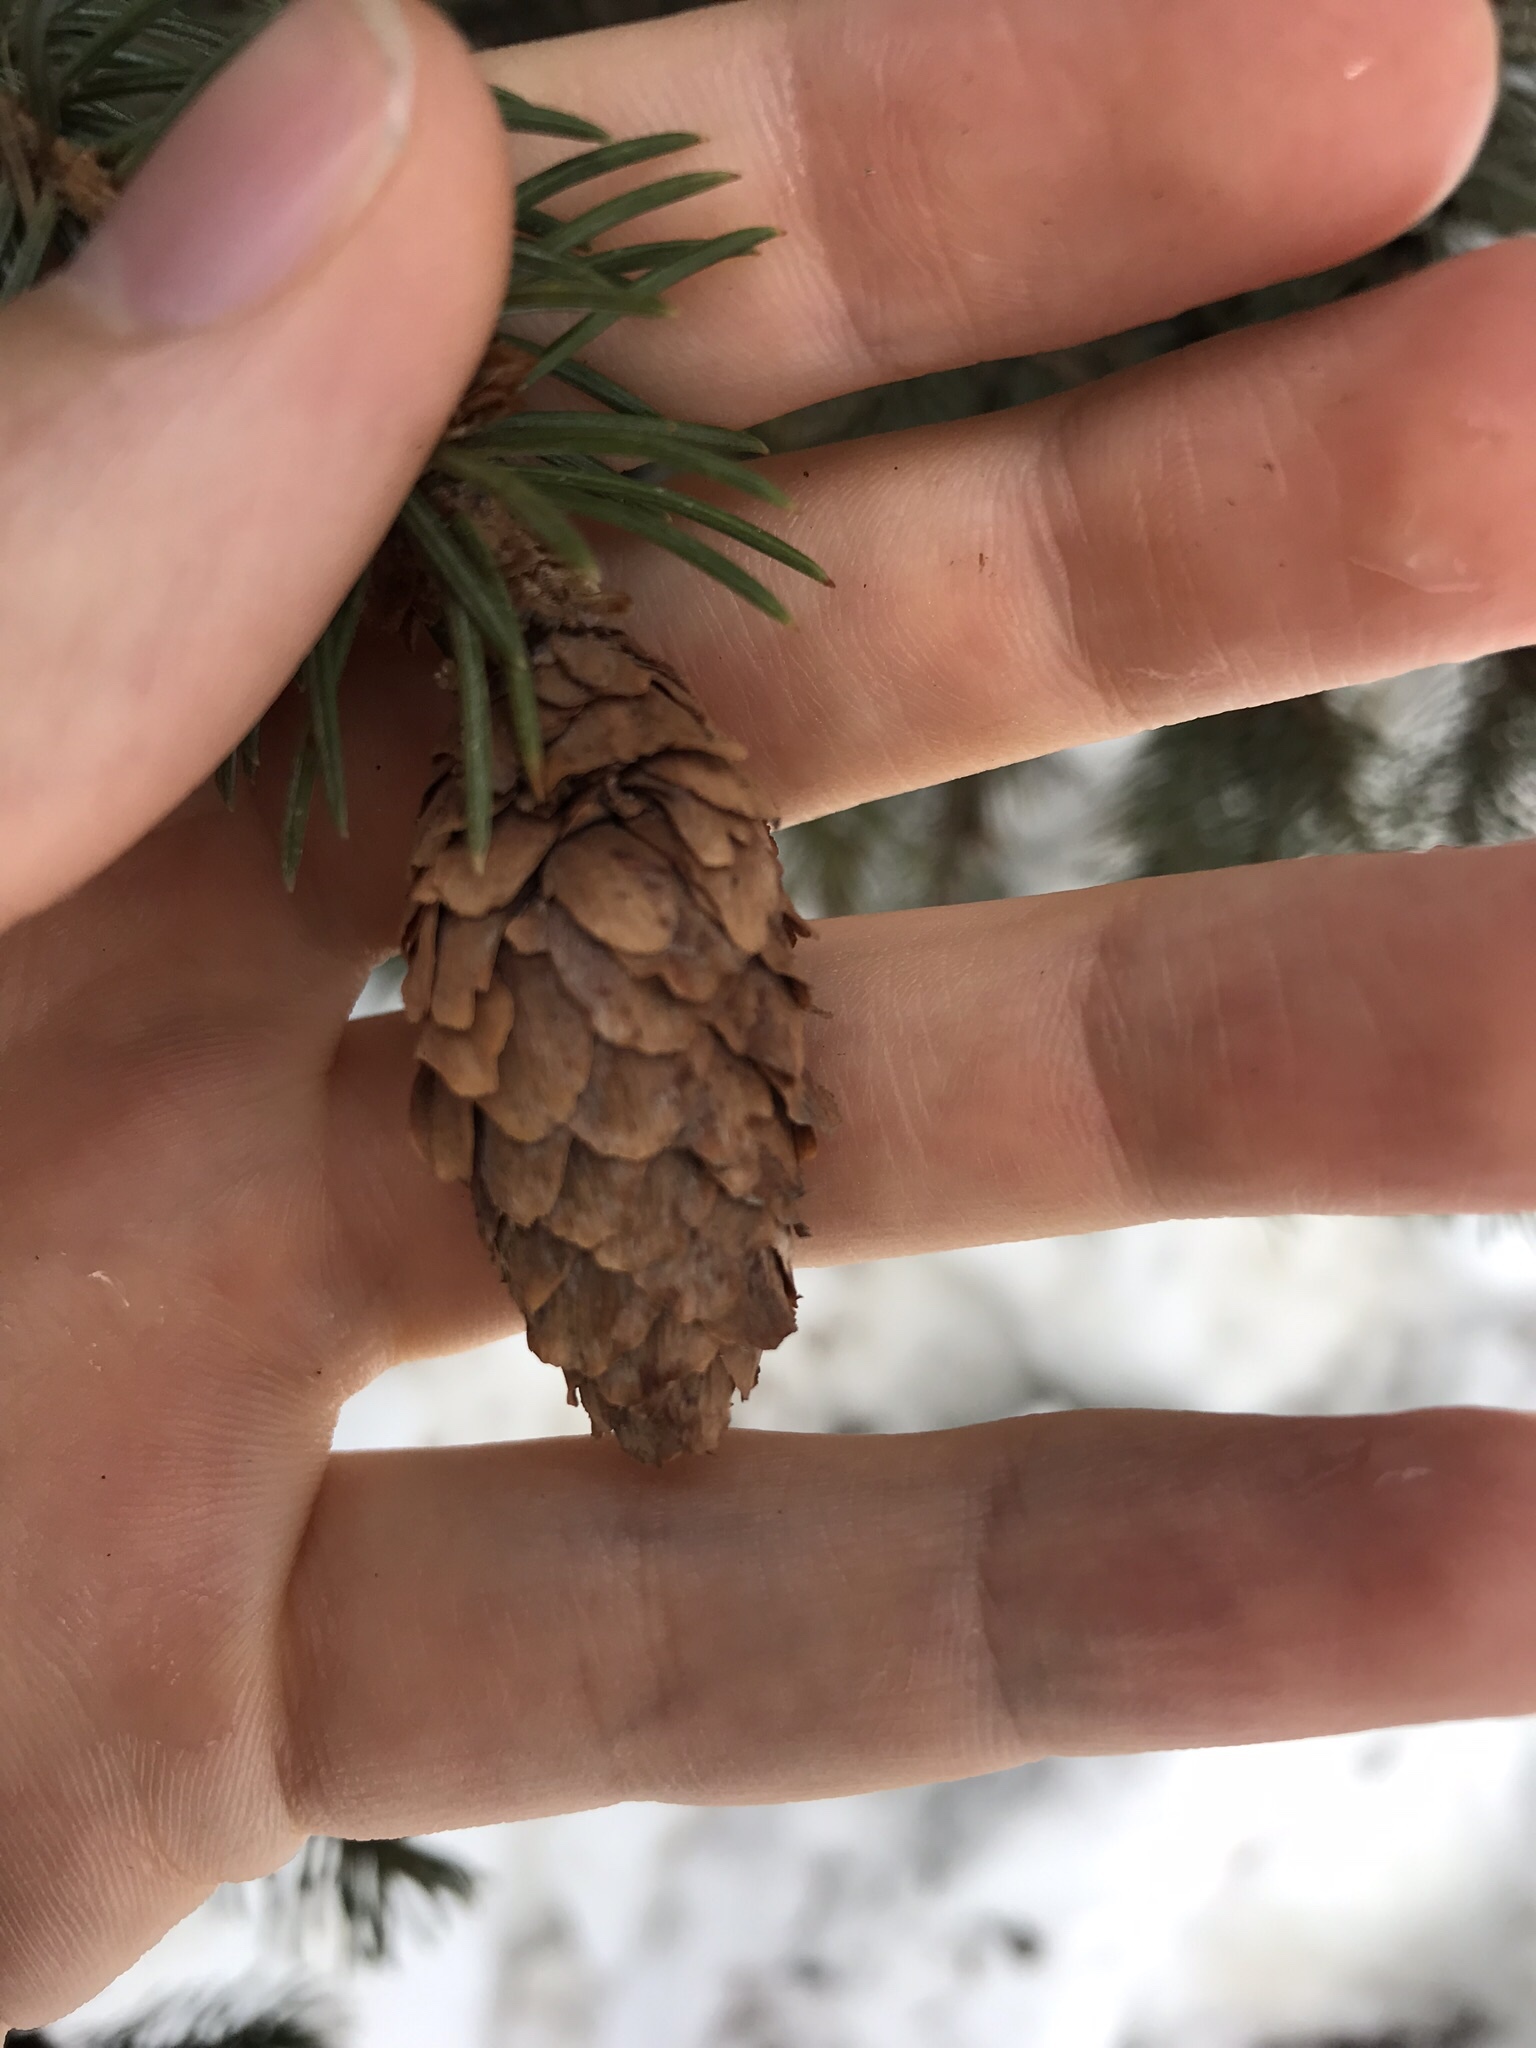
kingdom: Plantae
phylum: Tracheophyta
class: Pinopsida
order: Pinales
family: Pinaceae
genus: Picea
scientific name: Picea engelmannii
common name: Engelmann spruce
